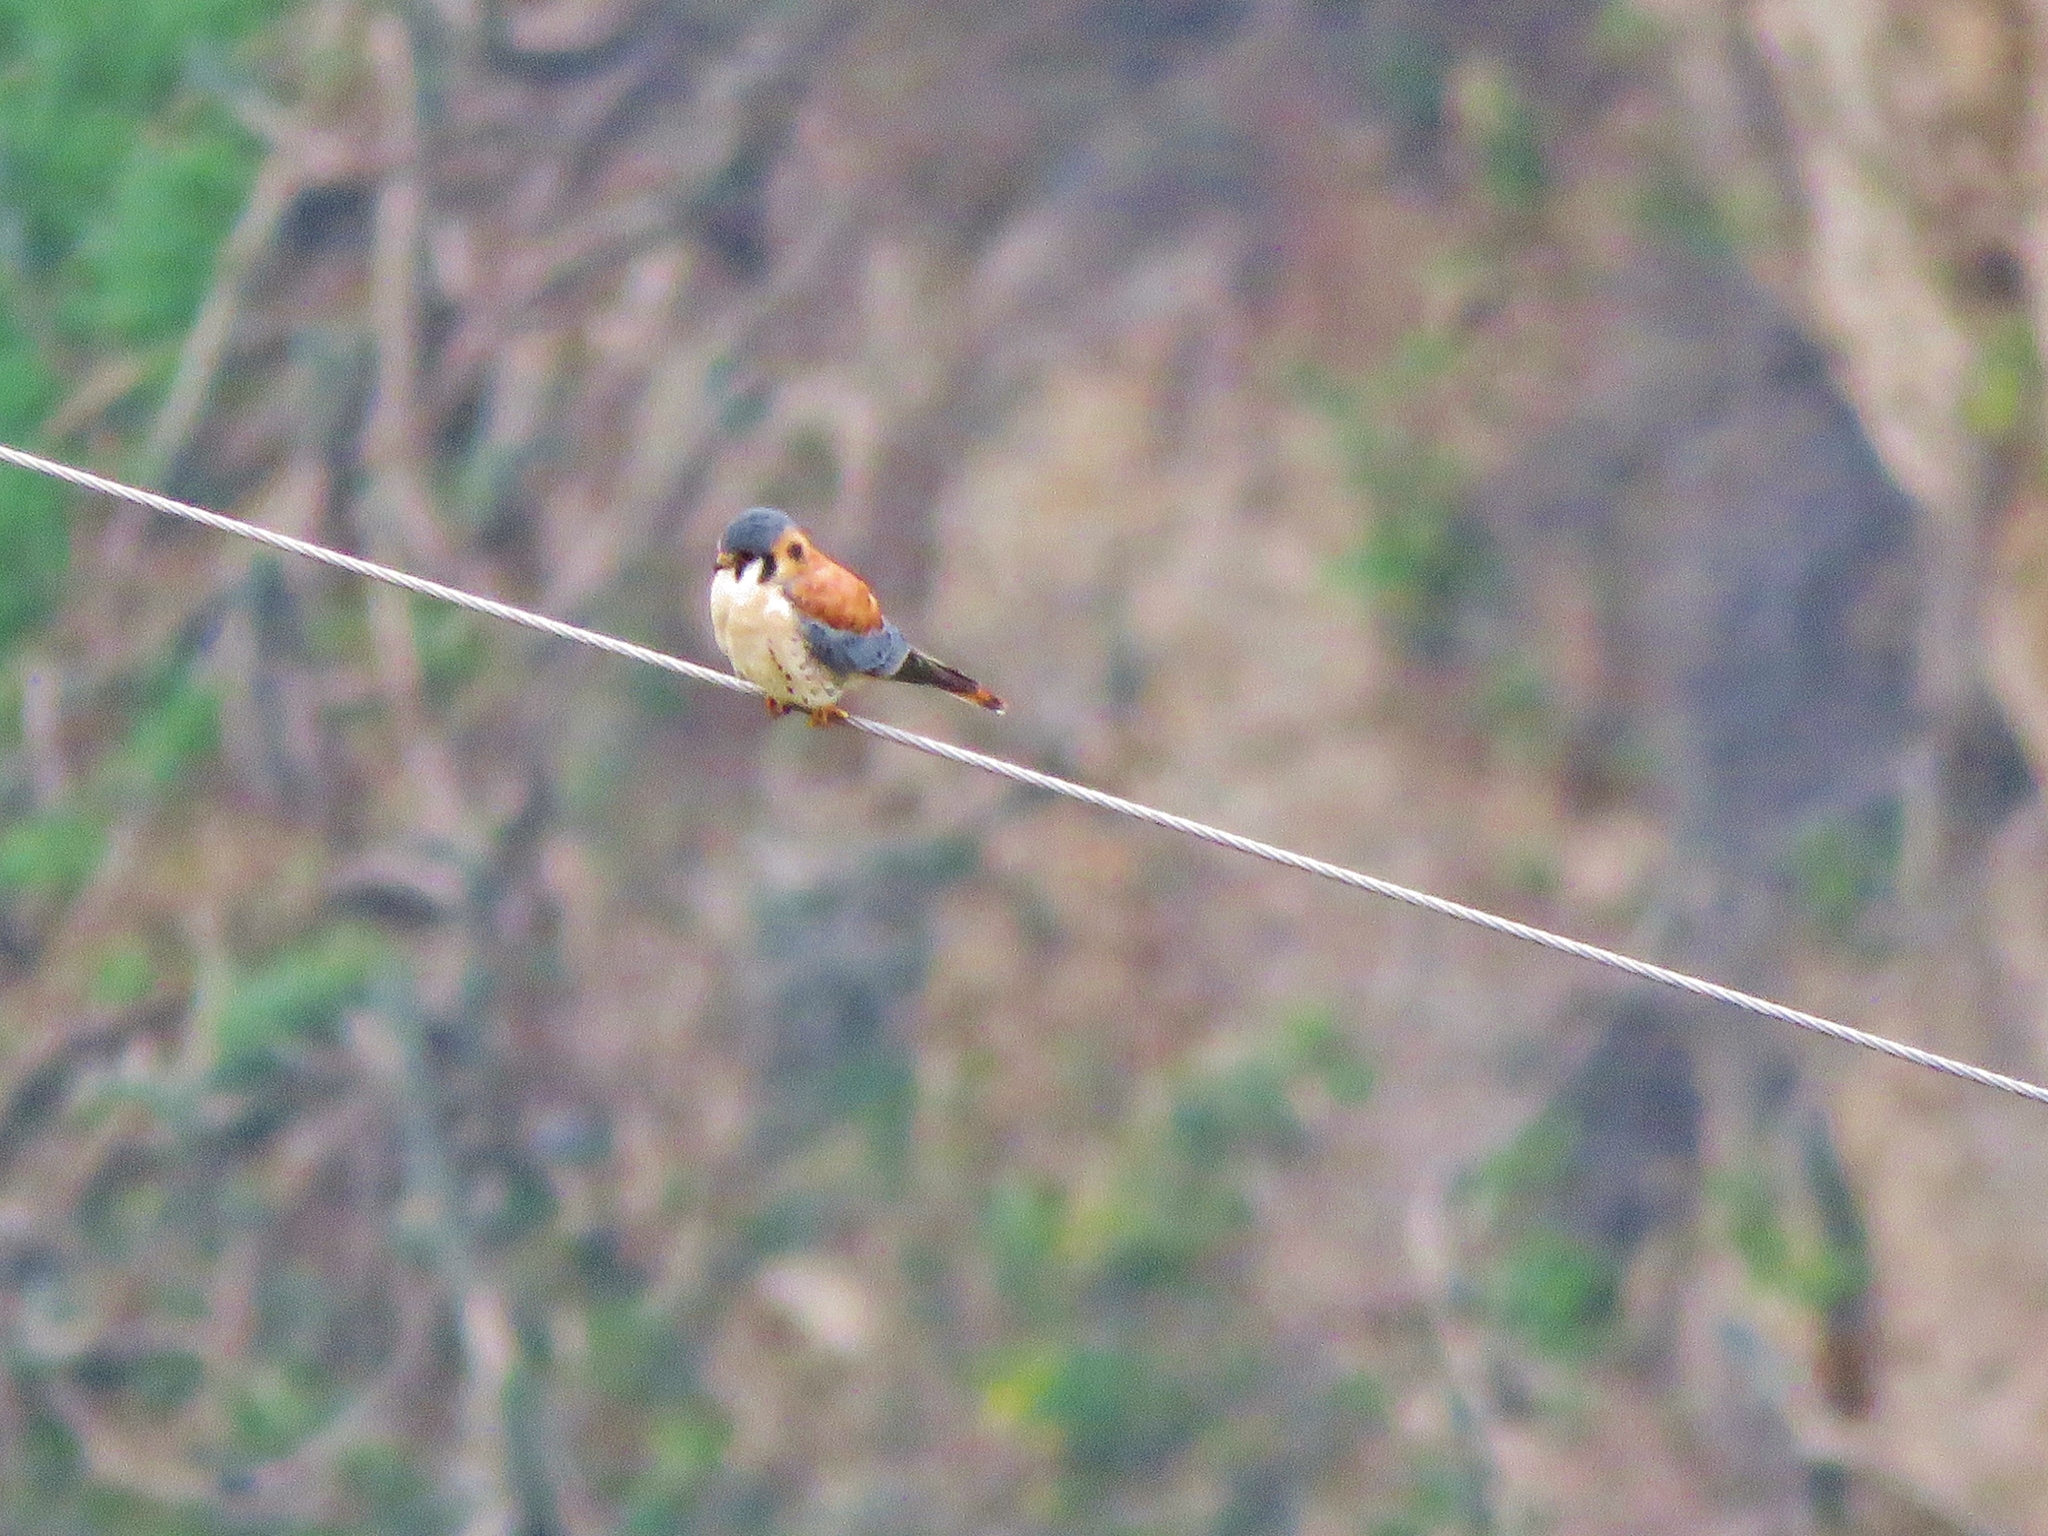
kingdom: Animalia
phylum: Chordata
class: Aves
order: Falconiformes
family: Falconidae
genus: Falco
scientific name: Falco sparverius
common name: American kestrel
